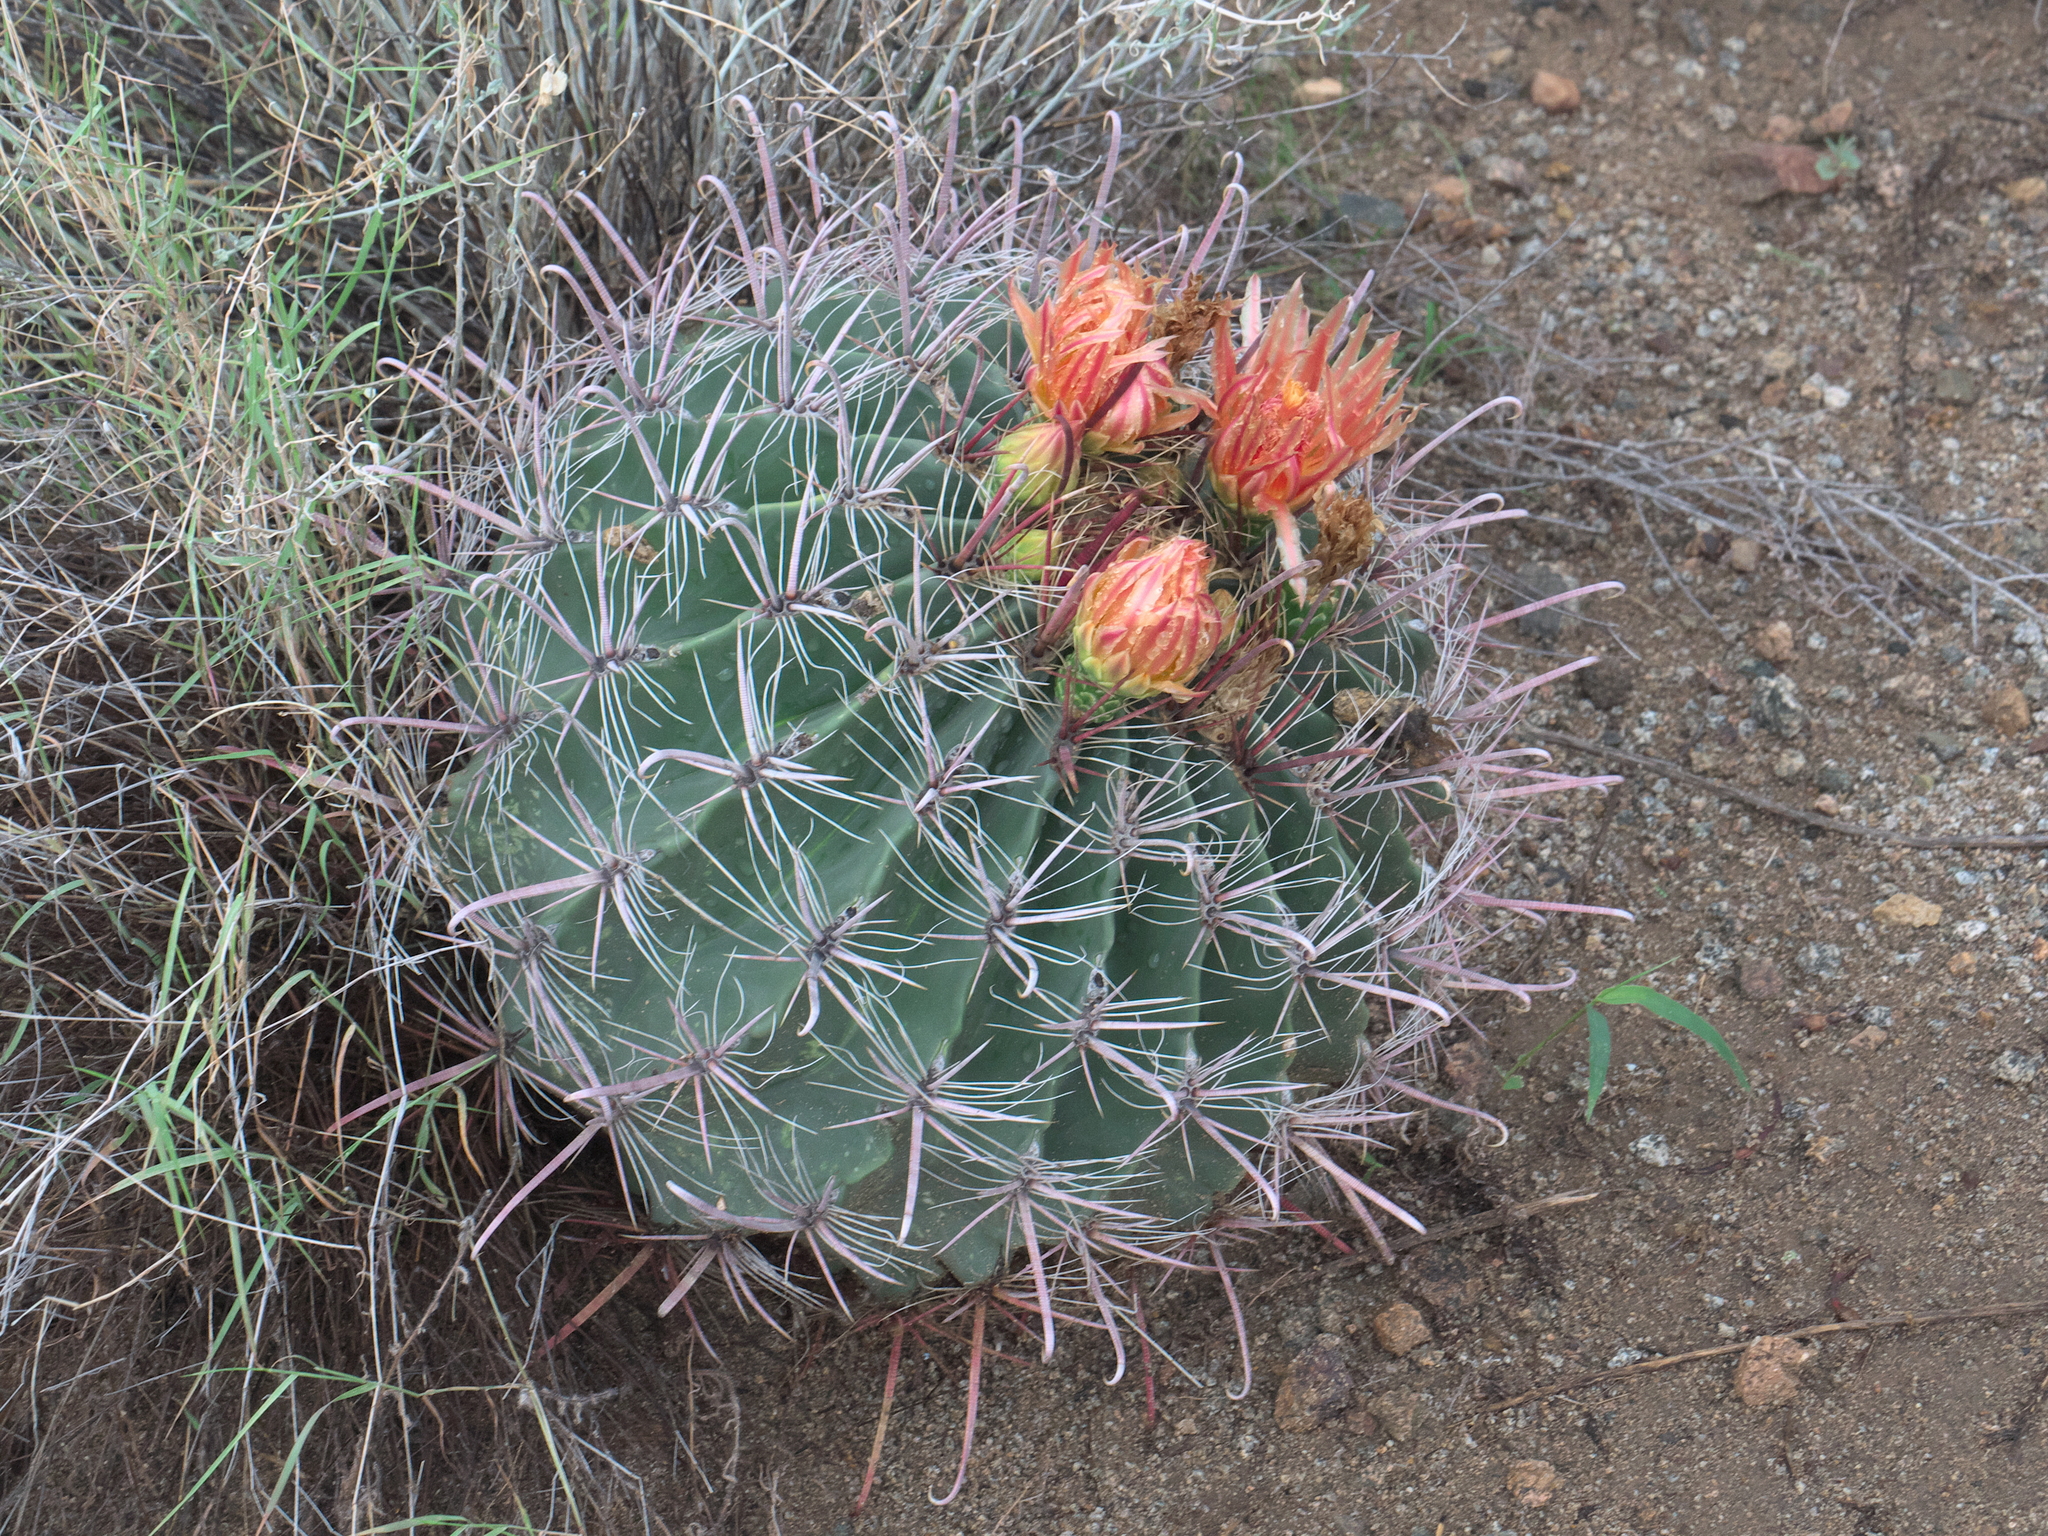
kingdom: Plantae
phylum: Tracheophyta
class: Magnoliopsida
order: Caryophyllales
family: Cactaceae
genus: Ferocactus
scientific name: Ferocactus wislizeni
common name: Candy barrel cactus
